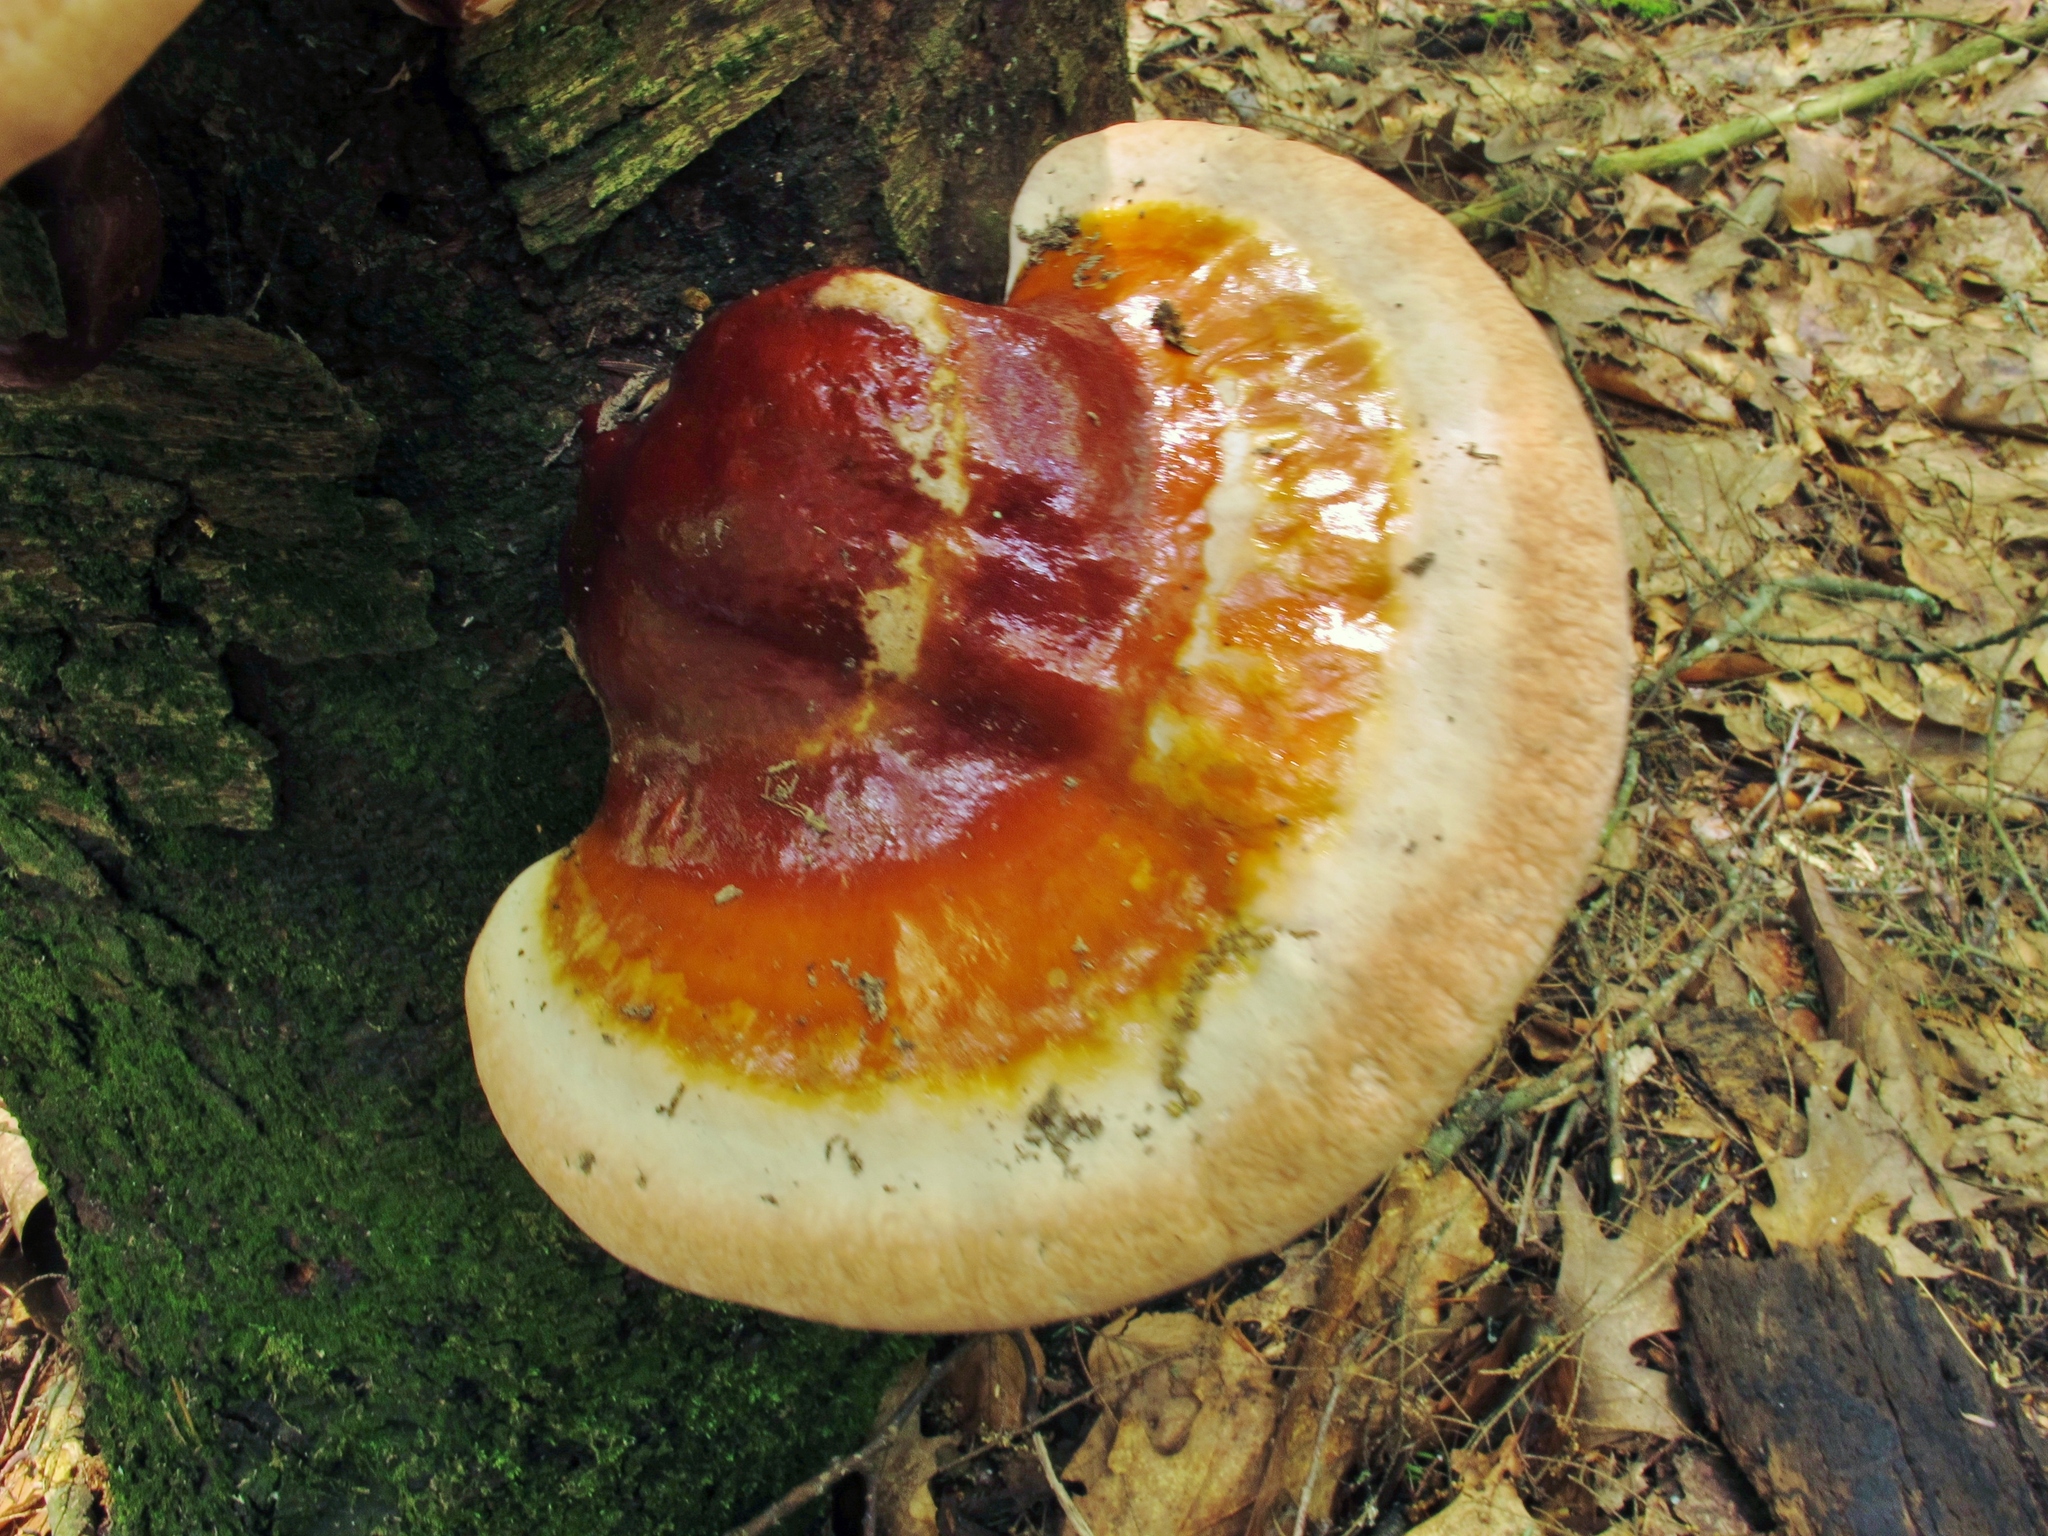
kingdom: Fungi
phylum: Basidiomycota
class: Agaricomycetes
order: Polyporales
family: Polyporaceae
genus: Ganoderma
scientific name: Ganoderma tsugae
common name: Hemlock varnish shelf
